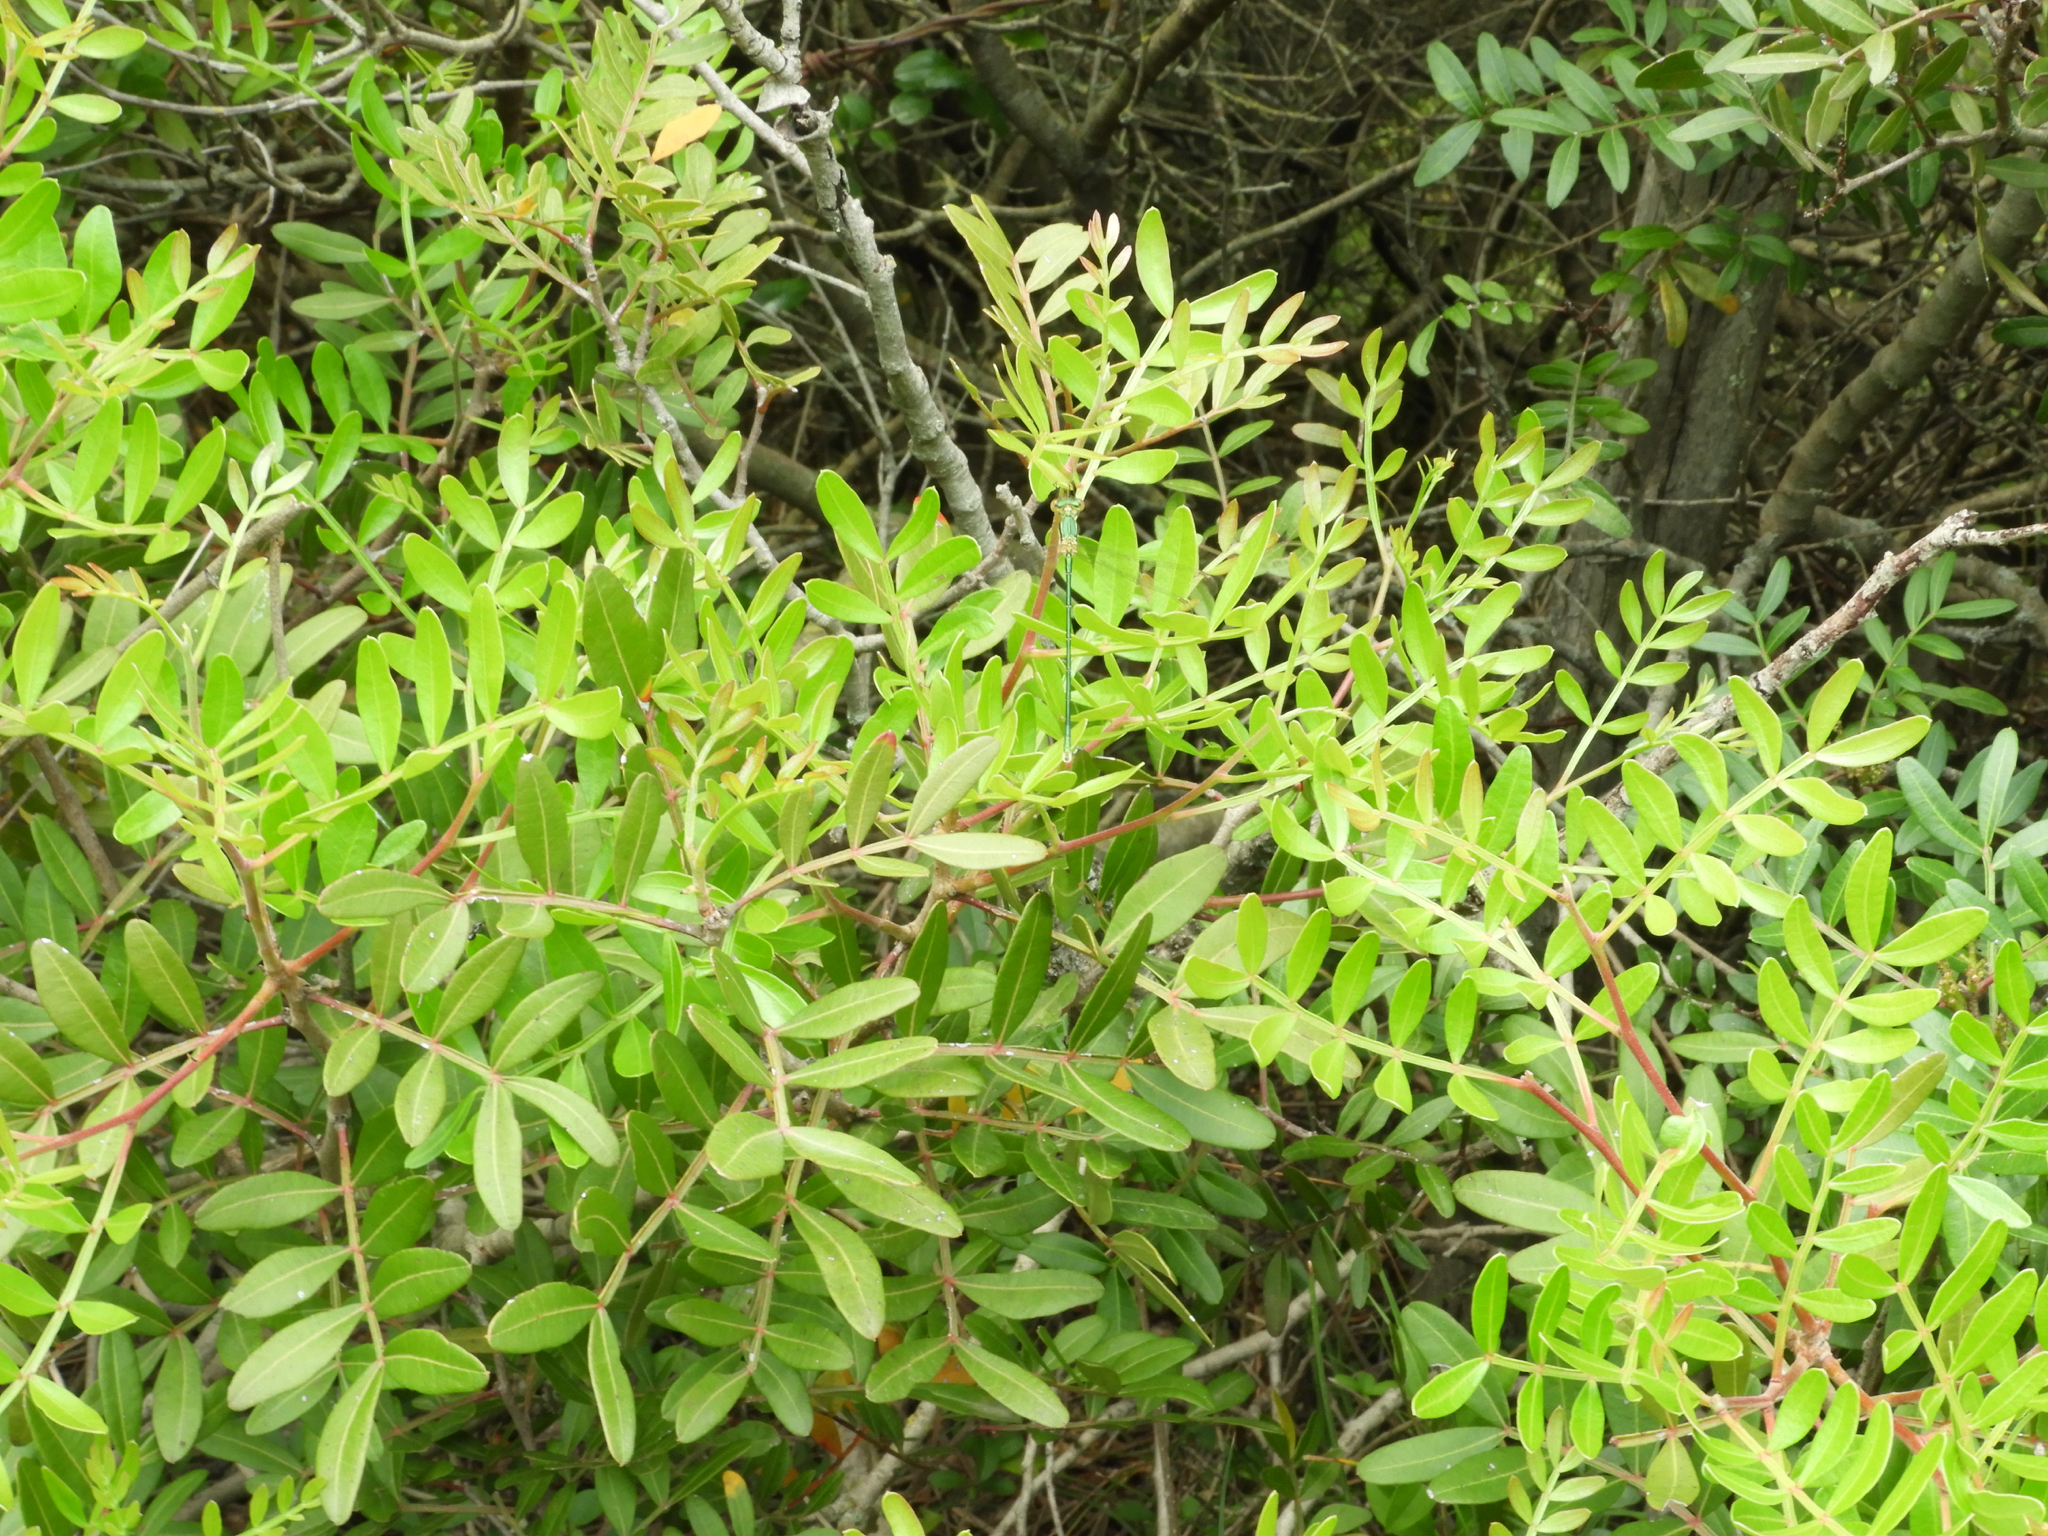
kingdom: Plantae
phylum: Tracheophyta
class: Magnoliopsida
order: Sapindales
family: Anacardiaceae
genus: Pistacia
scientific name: Pistacia lentiscus
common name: Lentisk
